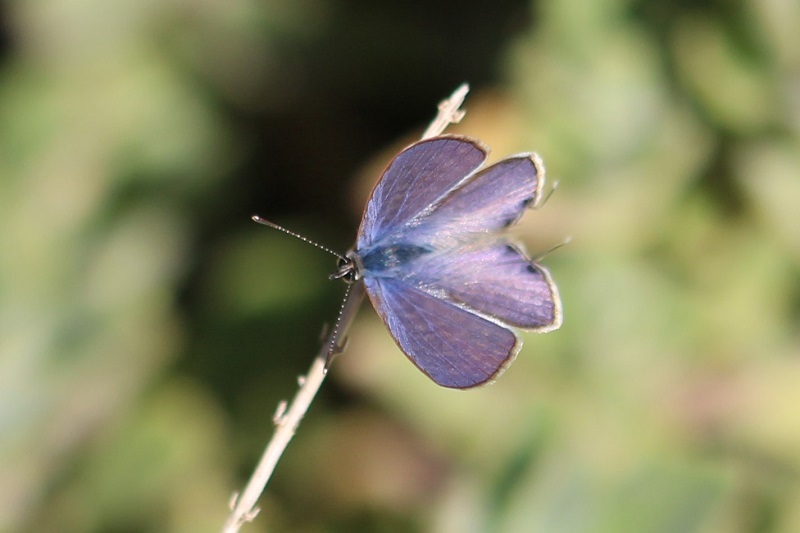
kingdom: Animalia
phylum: Arthropoda
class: Insecta
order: Lepidoptera
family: Lycaenidae
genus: Leptotes
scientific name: Leptotes
